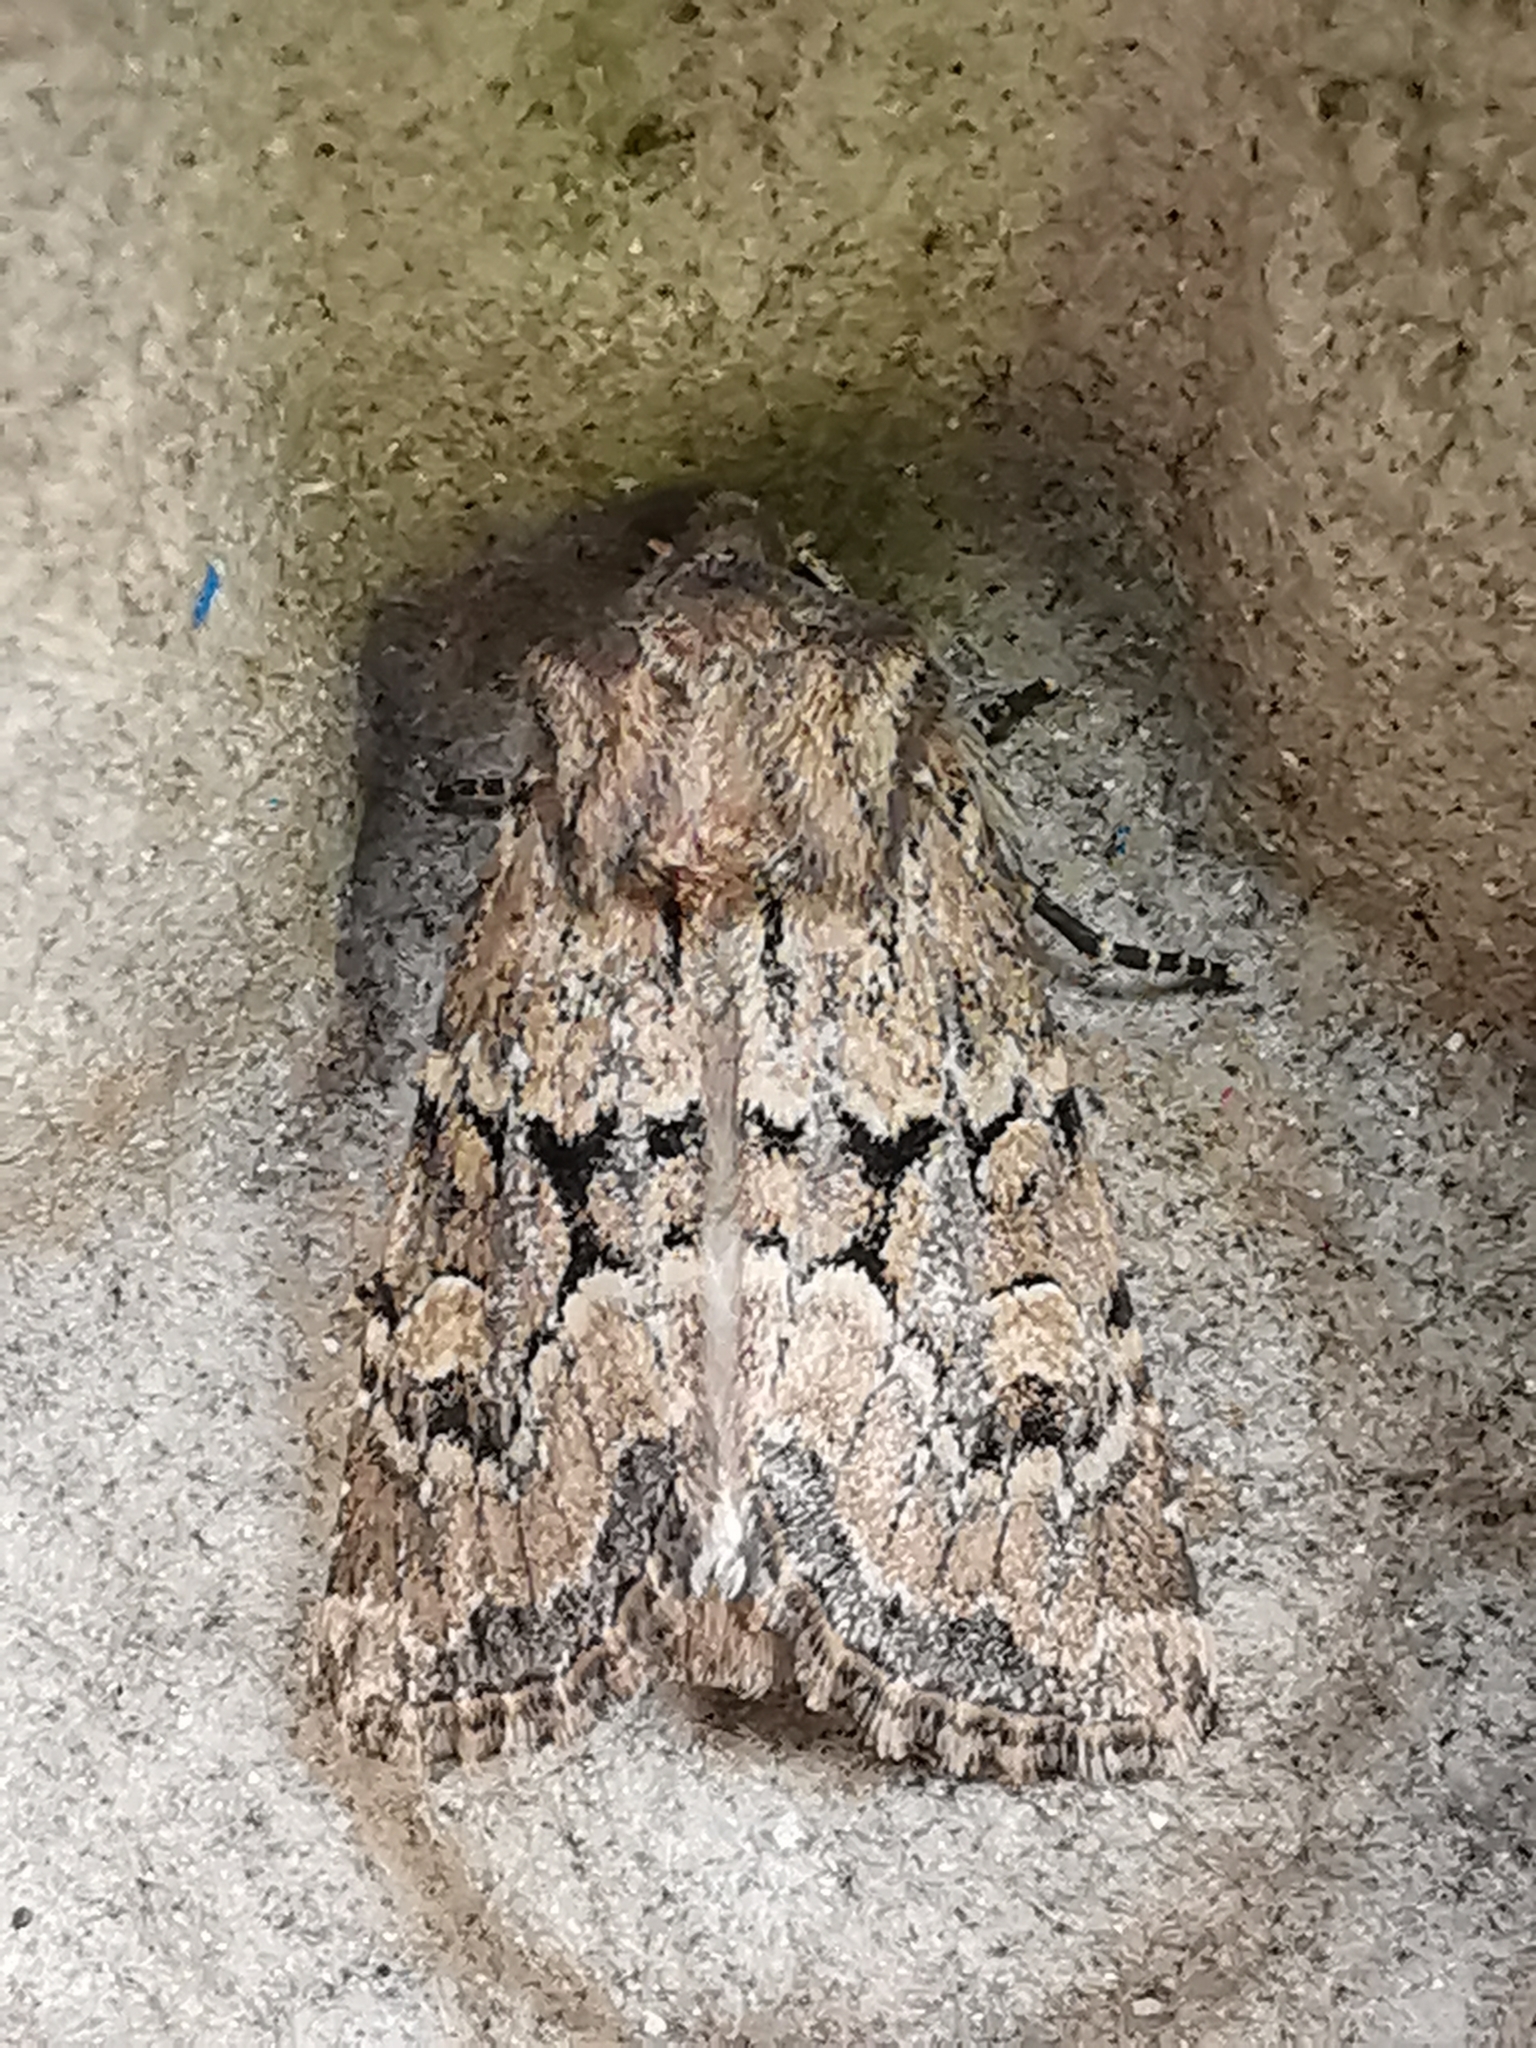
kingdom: Animalia
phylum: Arthropoda
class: Insecta
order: Lepidoptera
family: Noctuidae
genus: Luperina
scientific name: Luperina testacea
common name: Flounced rustic
